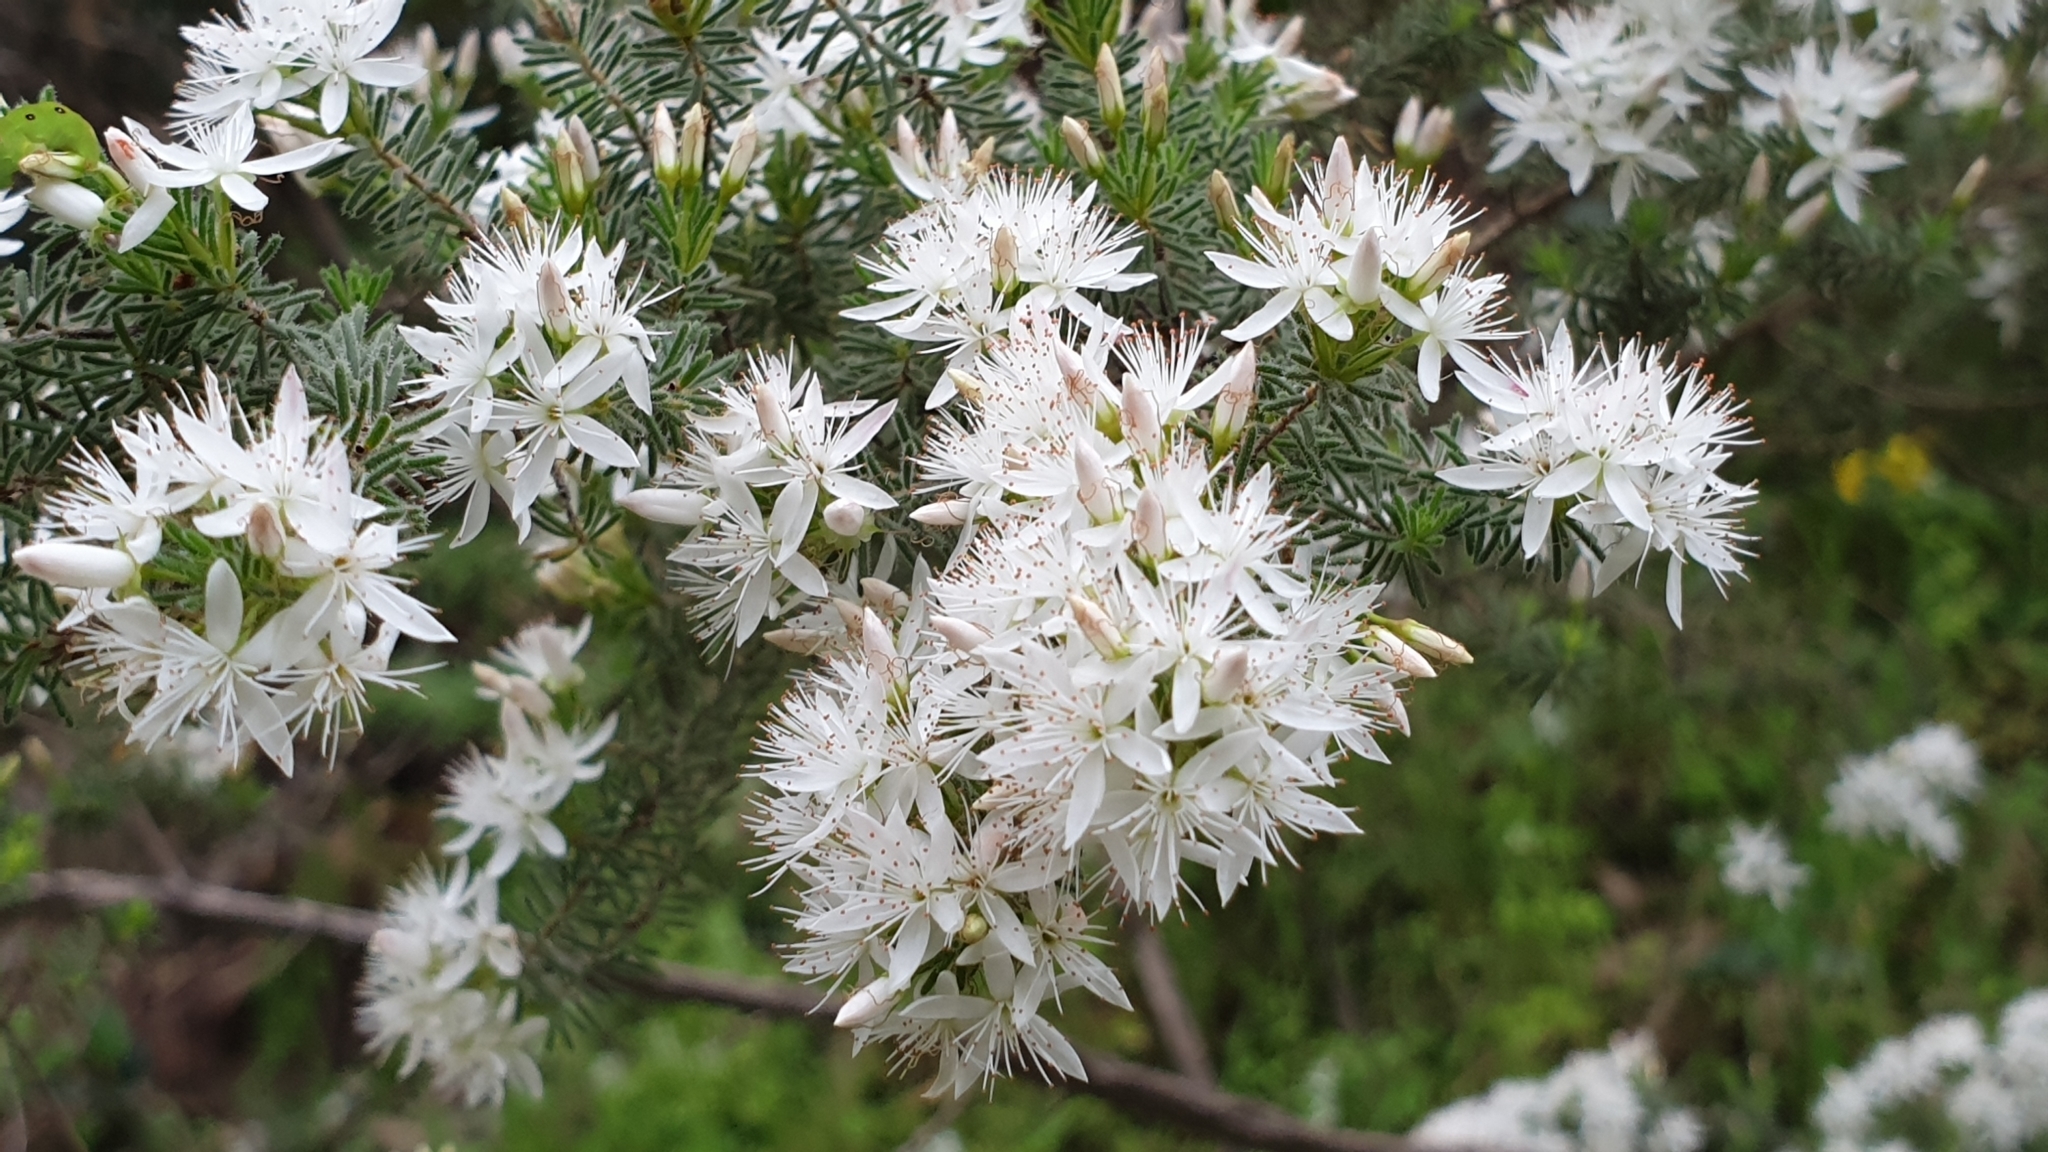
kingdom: Plantae
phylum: Tracheophyta
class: Magnoliopsida
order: Myrtales
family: Myrtaceae
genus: Calytrix
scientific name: Calytrix tetragona
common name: Common fringe myrtle
